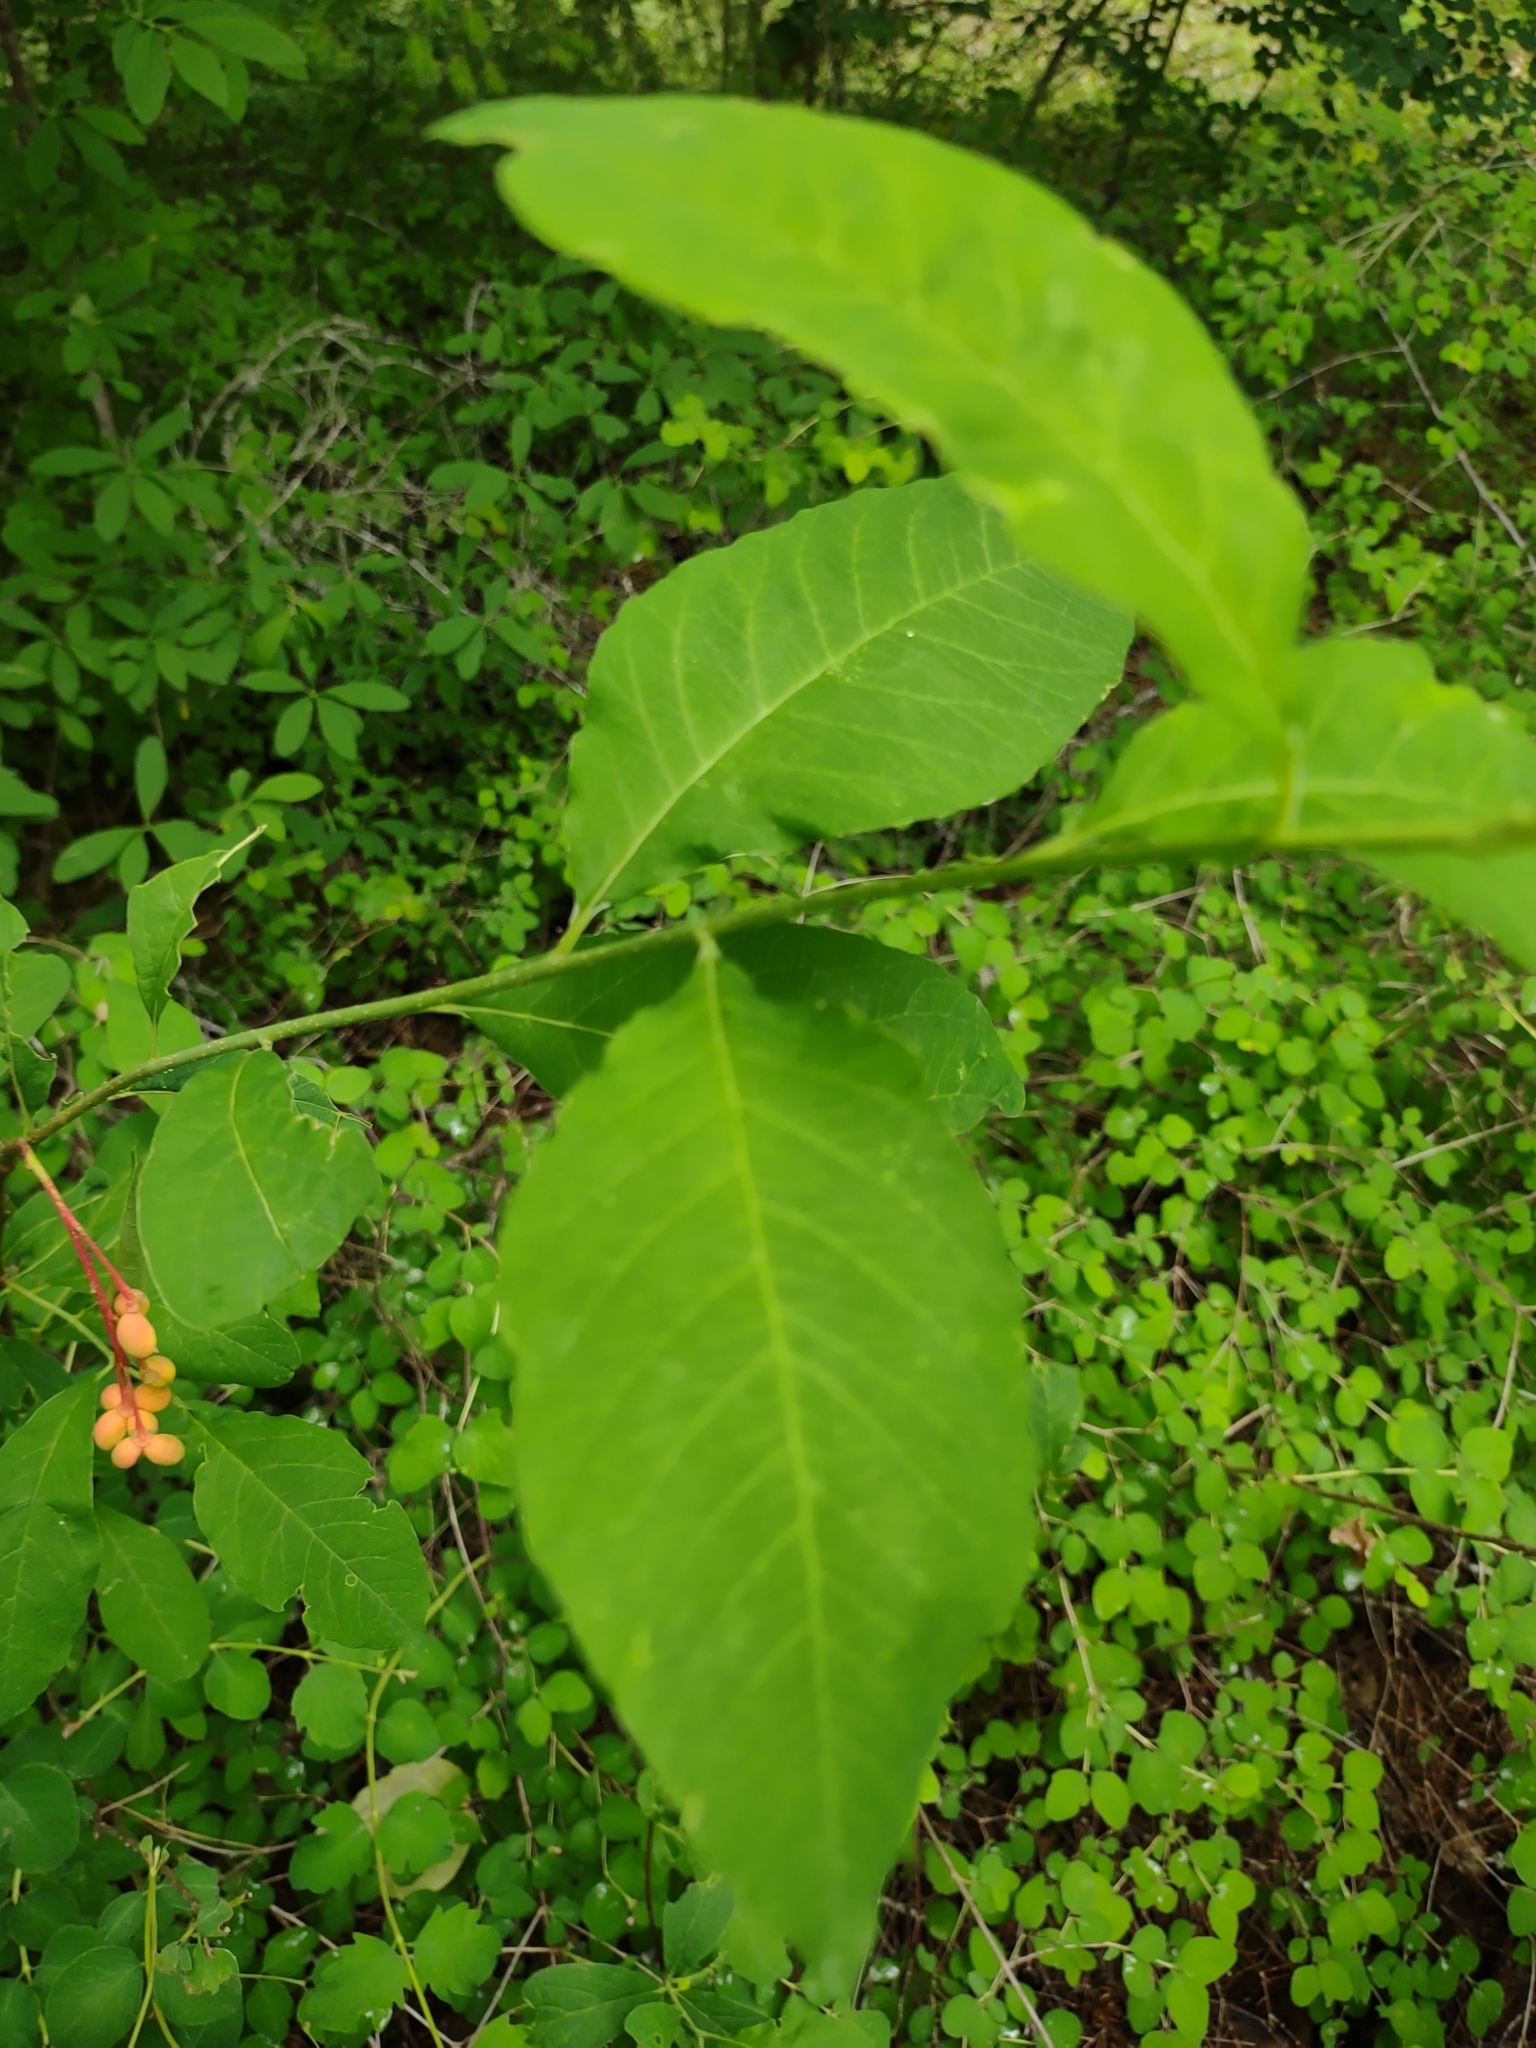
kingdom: Plantae
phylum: Tracheophyta
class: Magnoliopsida
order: Rosales
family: Rosaceae
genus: Oemleria
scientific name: Oemleria cerasiformis
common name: Osoberry
